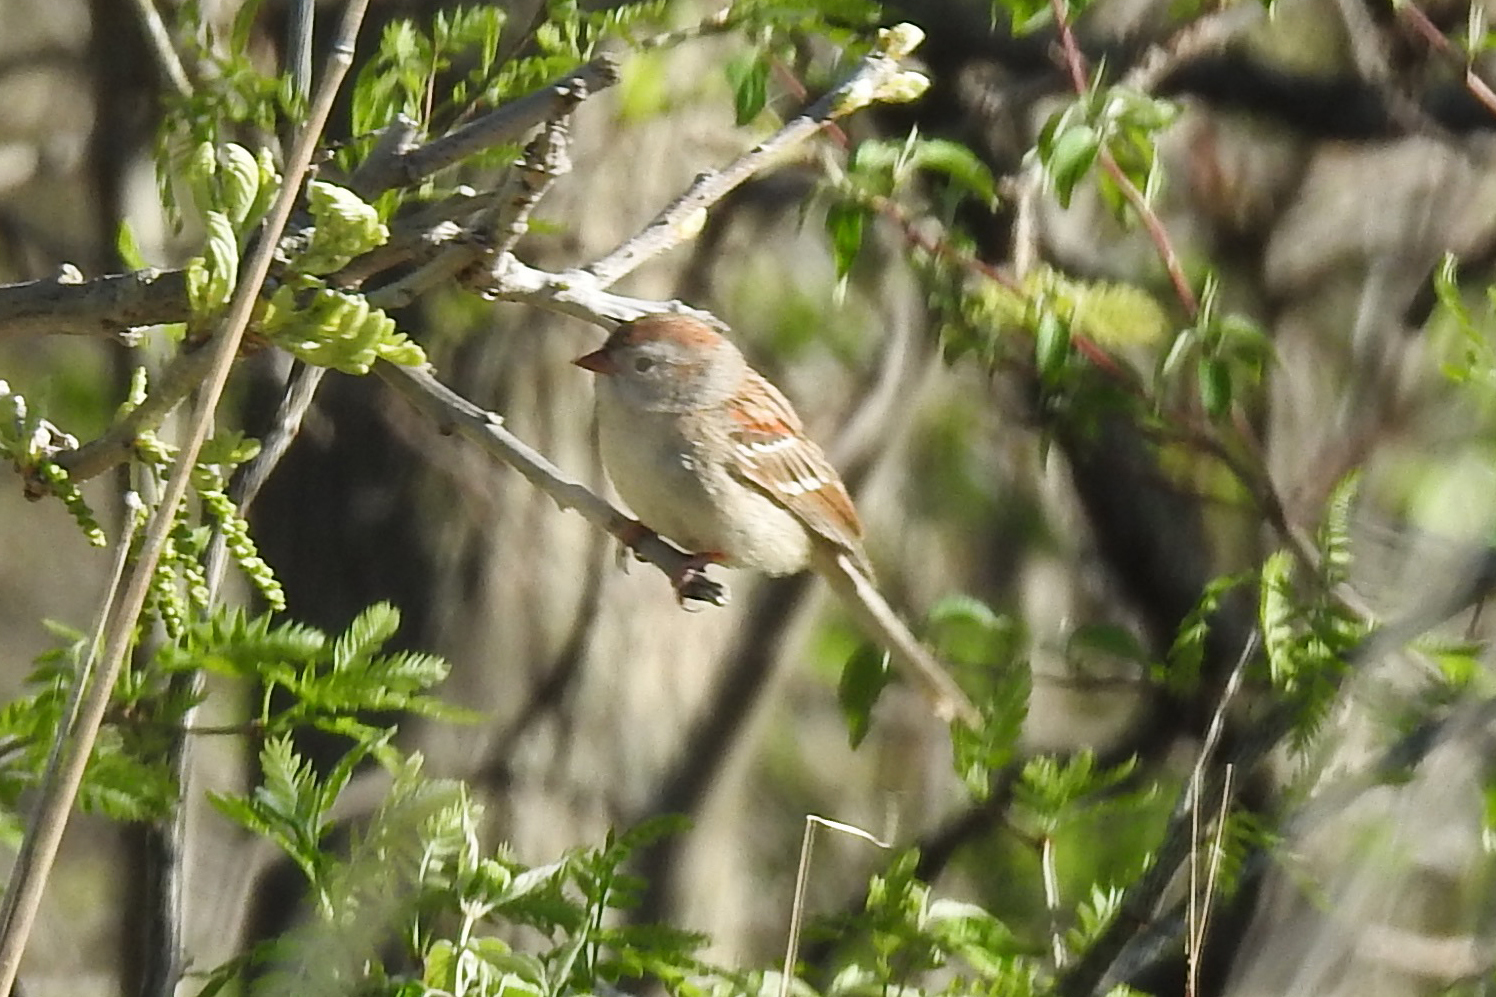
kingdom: Animalia
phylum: Chordata
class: Aves
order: Passeriformes
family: Passerellidae
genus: Spizella
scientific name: Spizella pusilla
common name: Field sparrow
